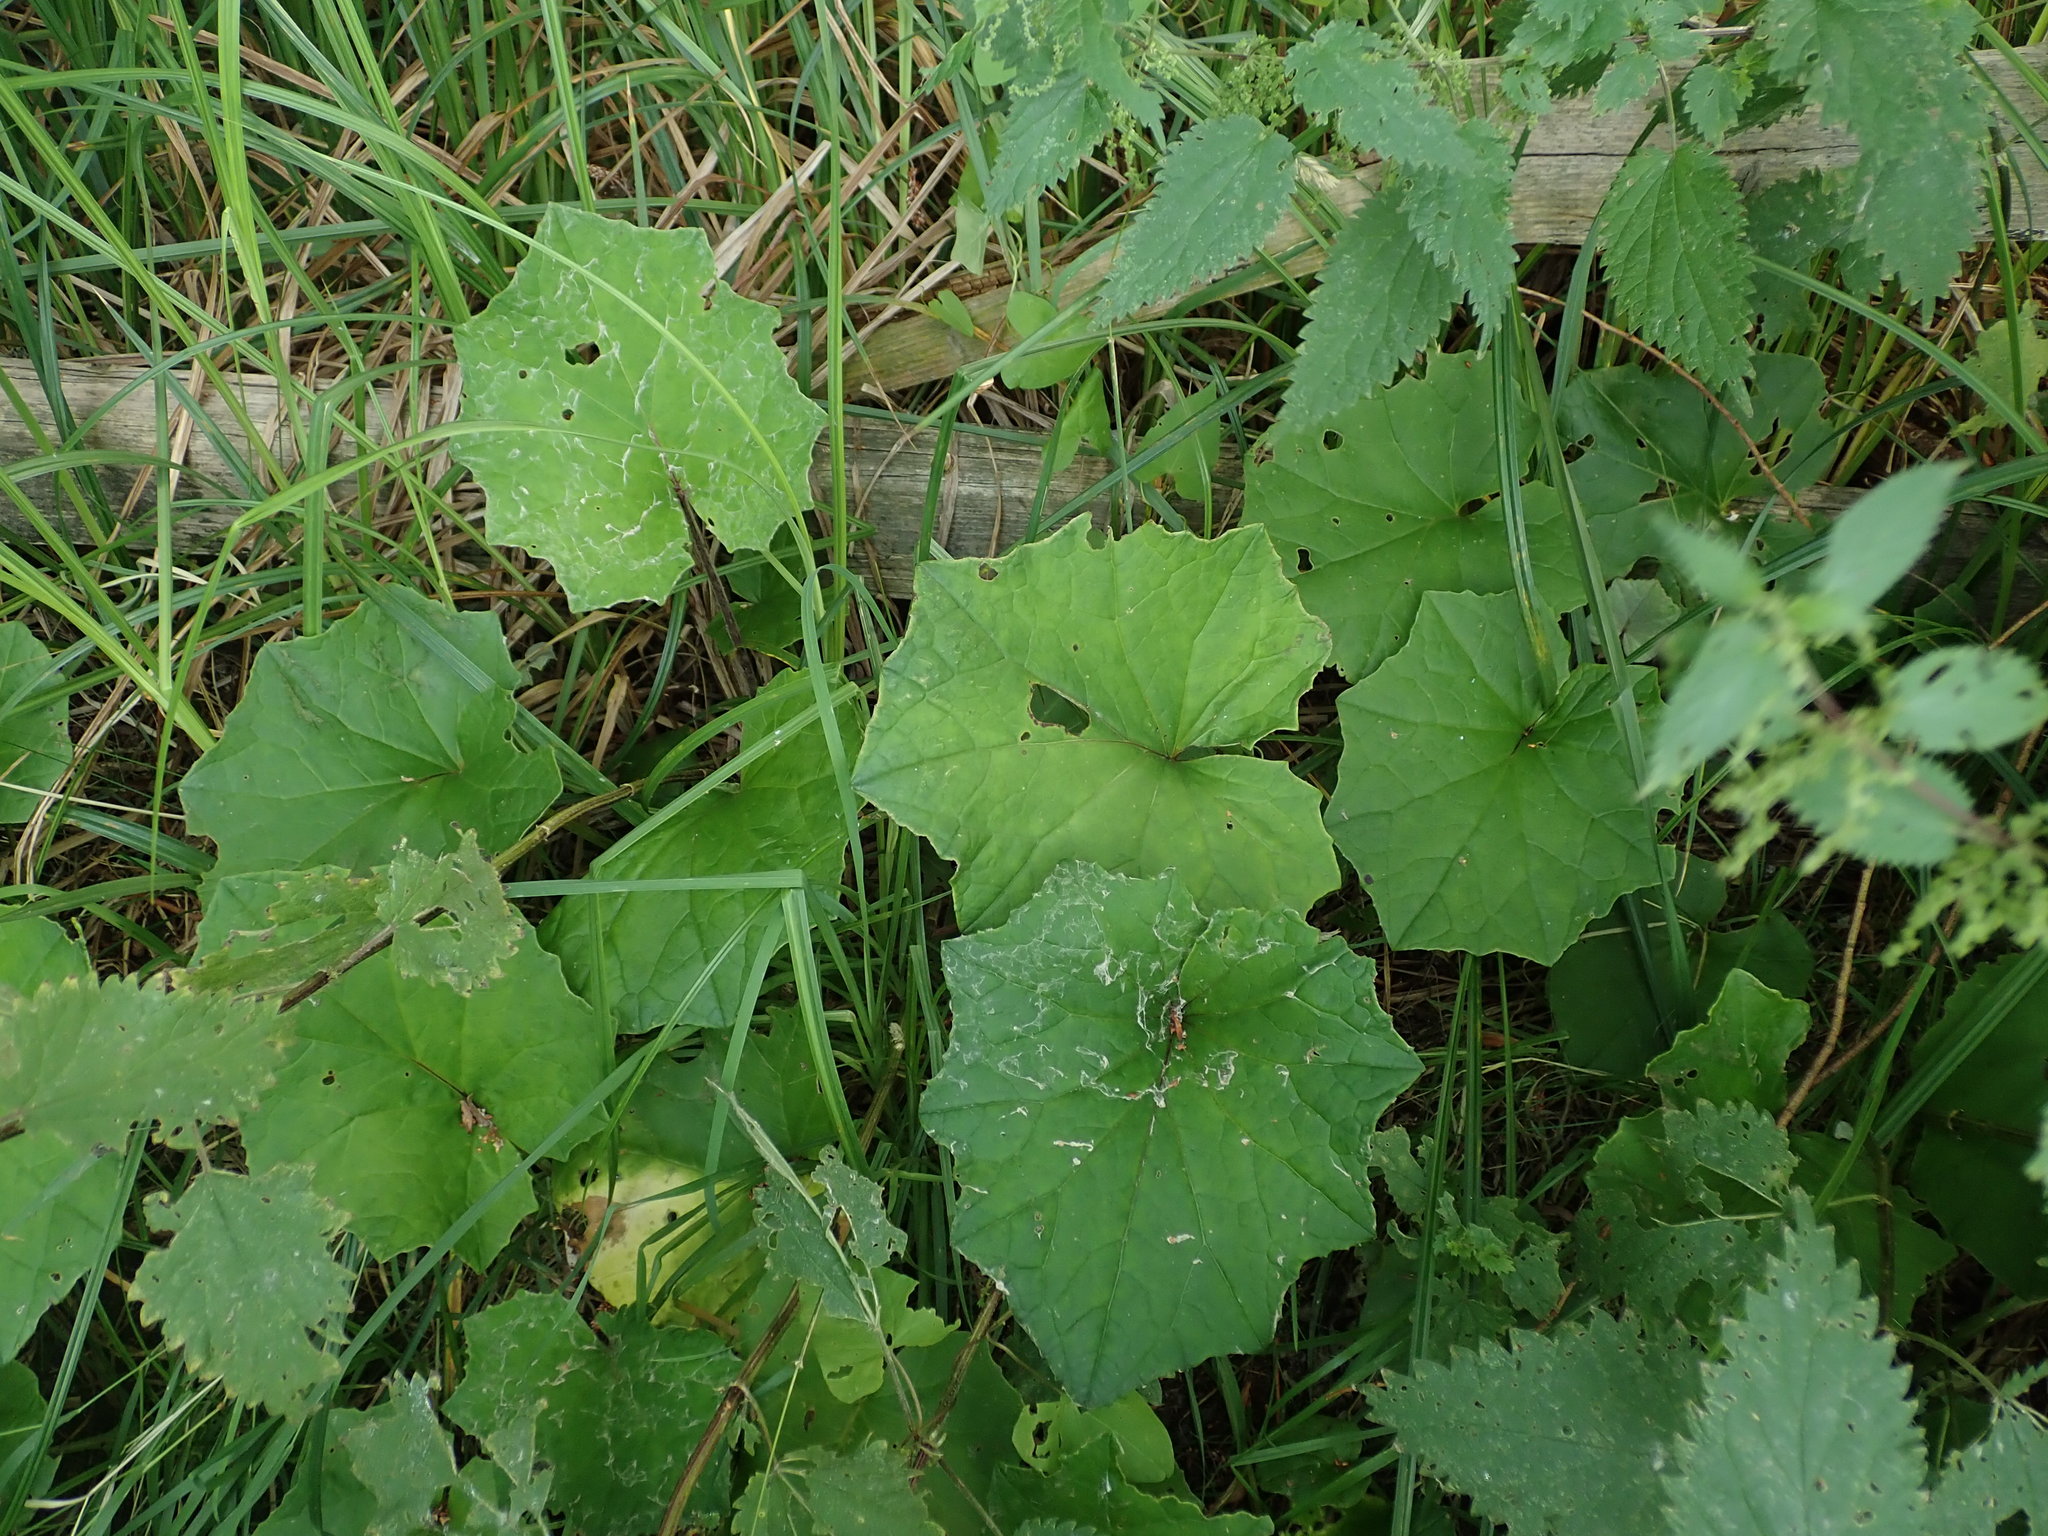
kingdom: Plantae
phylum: Tracheophyta
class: Magnoliopsida
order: Asterales
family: Asteraceae
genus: Tussilago
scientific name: Tussilago farfara
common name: Coltsfoot
